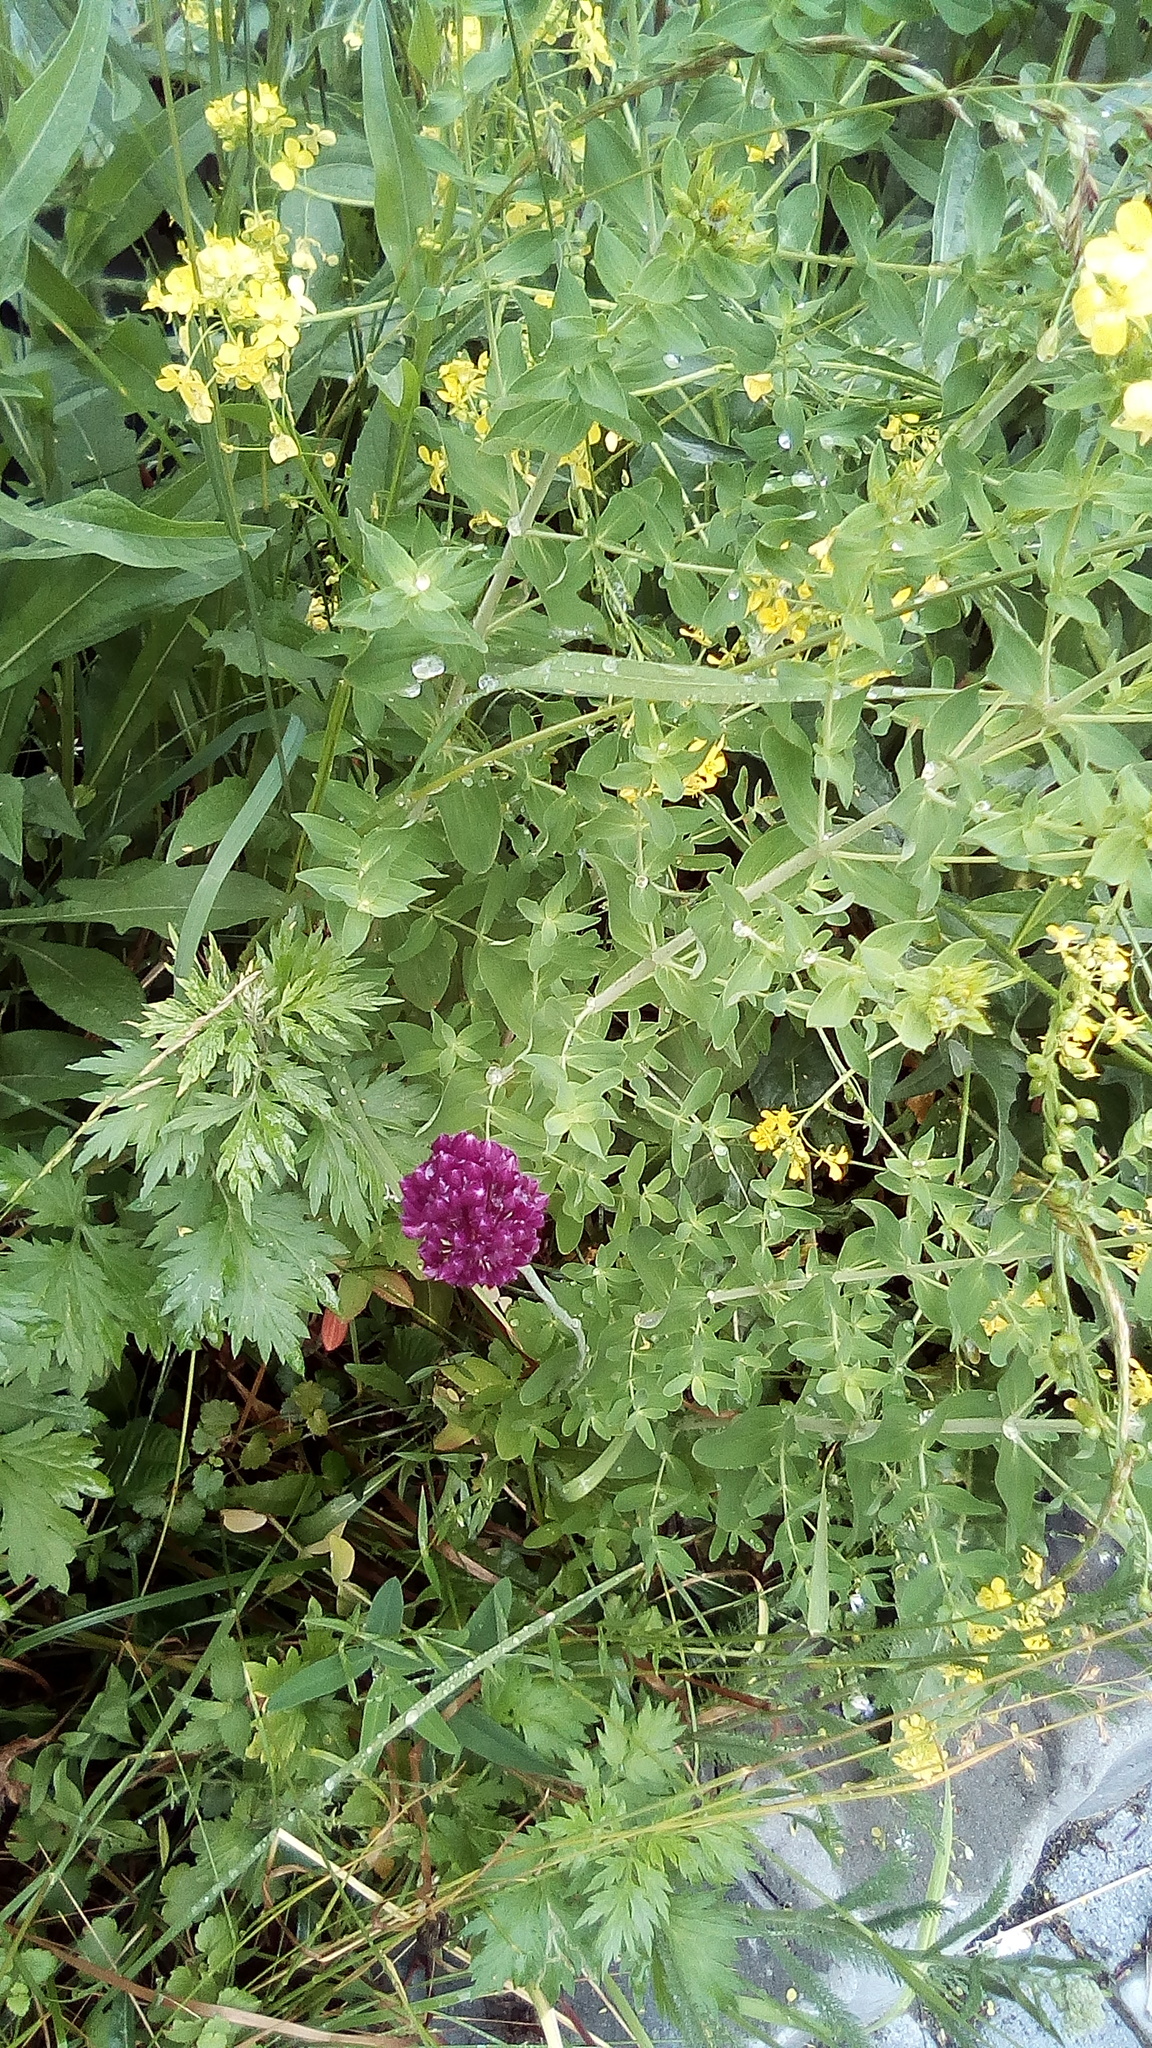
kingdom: Plantae
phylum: Tracheophyta
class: Liliopsida
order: Asparagales
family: Amaryllidaceae
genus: Allium
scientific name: Allium rotundum
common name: Sand leek
